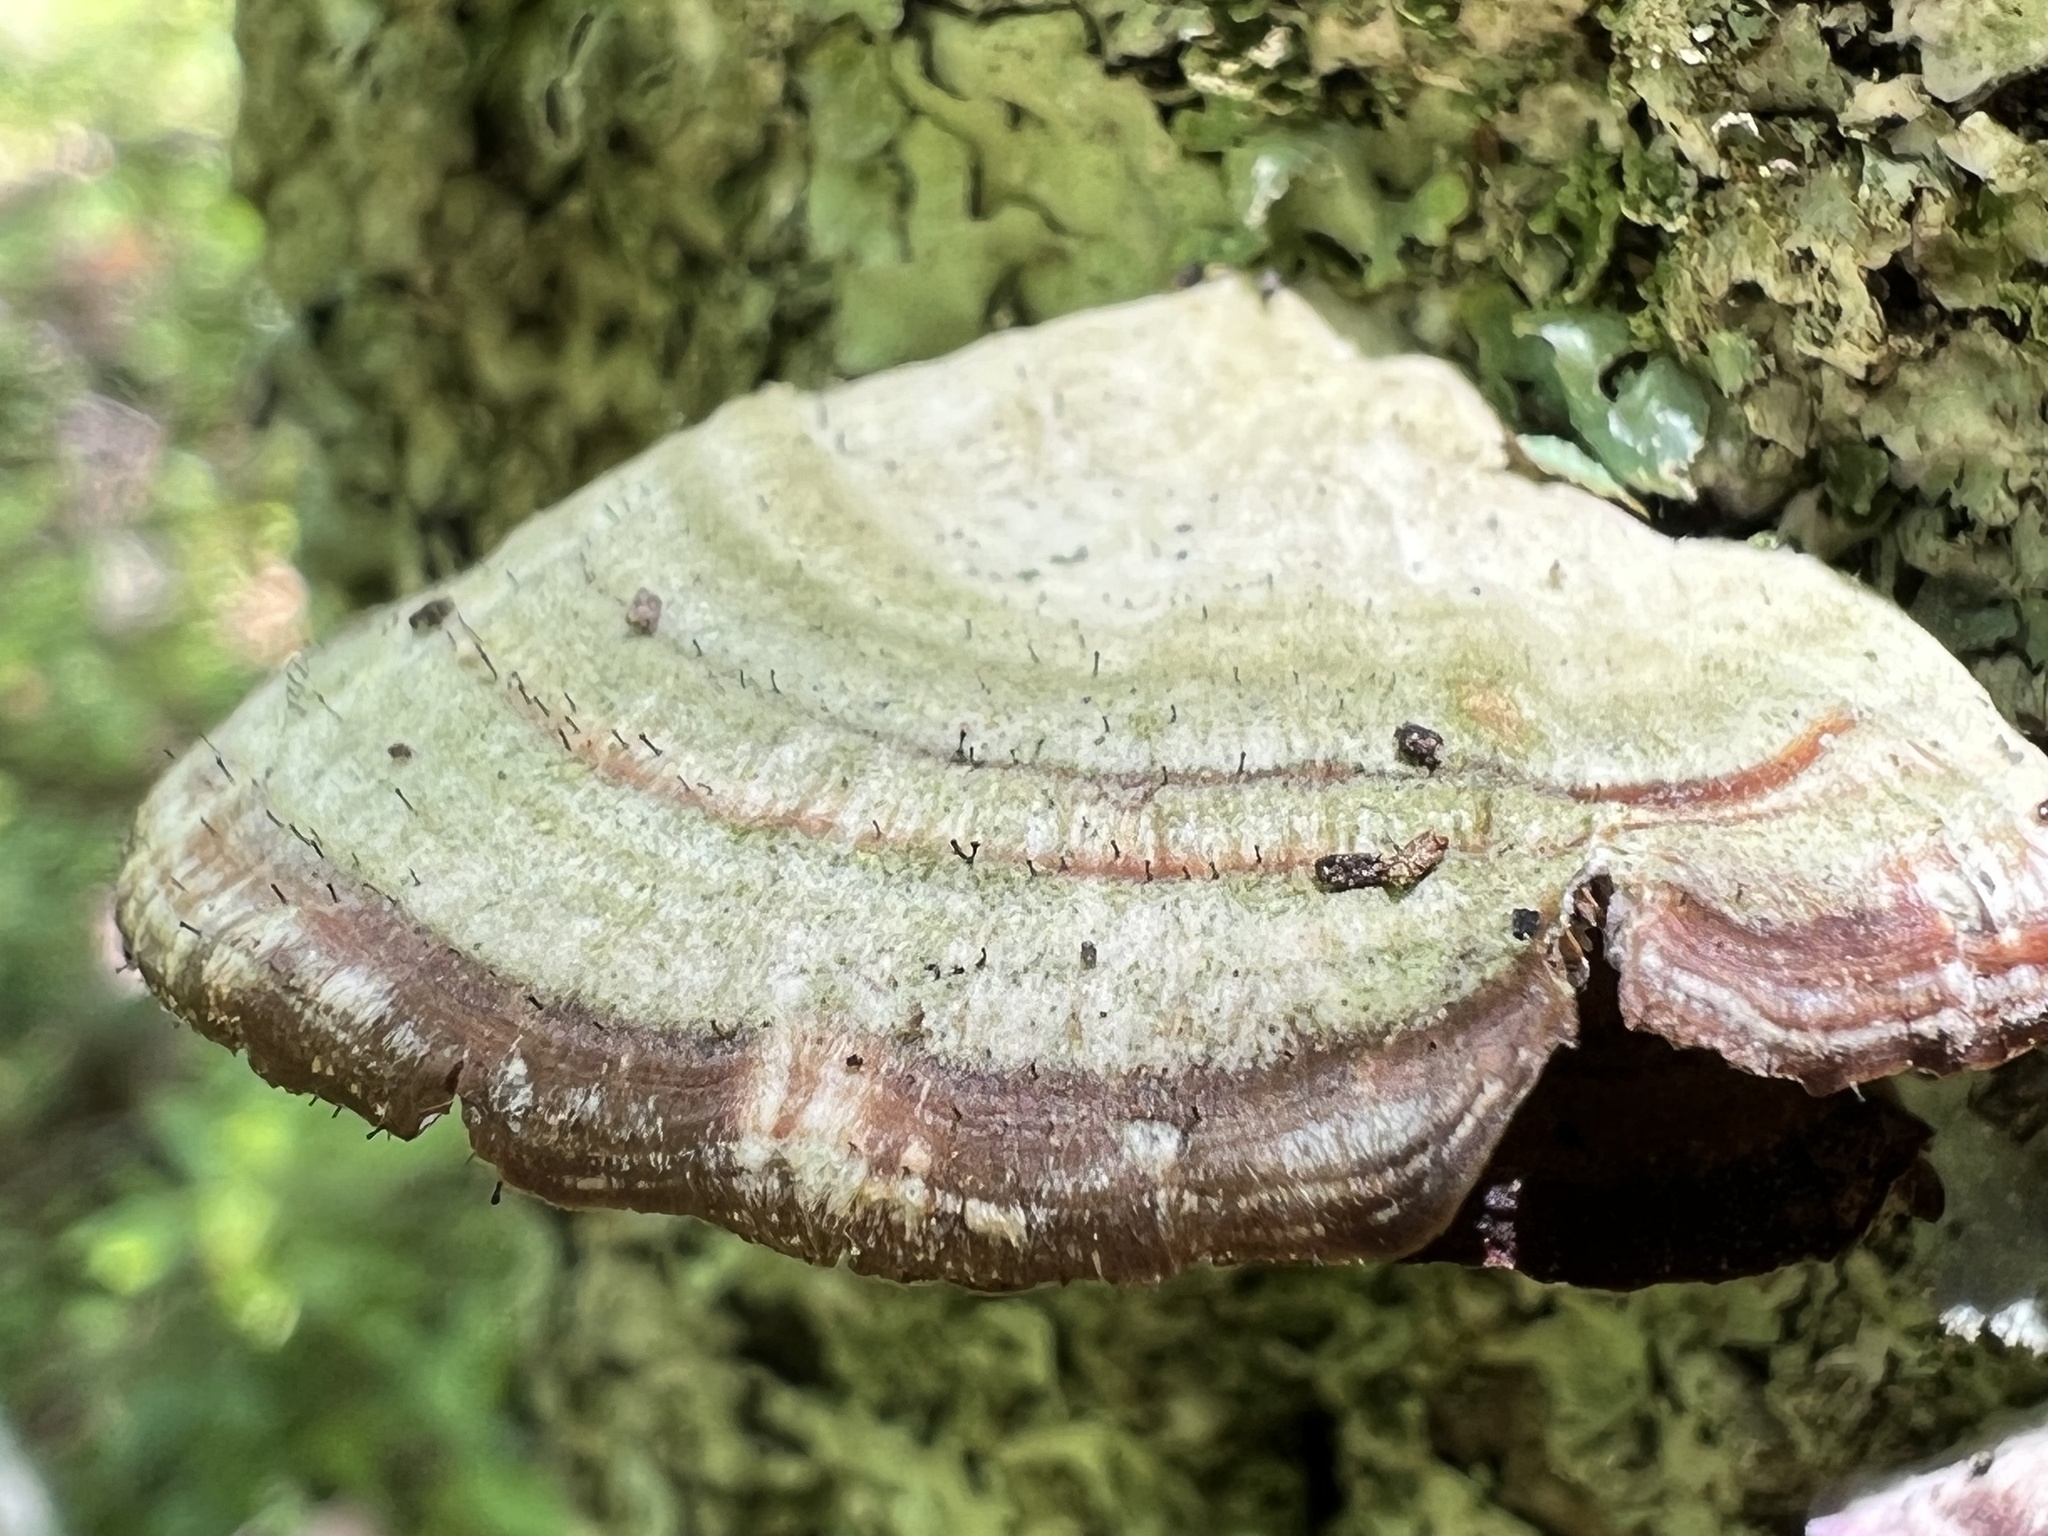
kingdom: Fungi
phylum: Ascomycota
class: Eurotiomycetes
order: Mycocaliciales
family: Mycocaliciaceae
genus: Phaeocalicium
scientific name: Phaeocalicium polyporaeum
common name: Fairy pins
